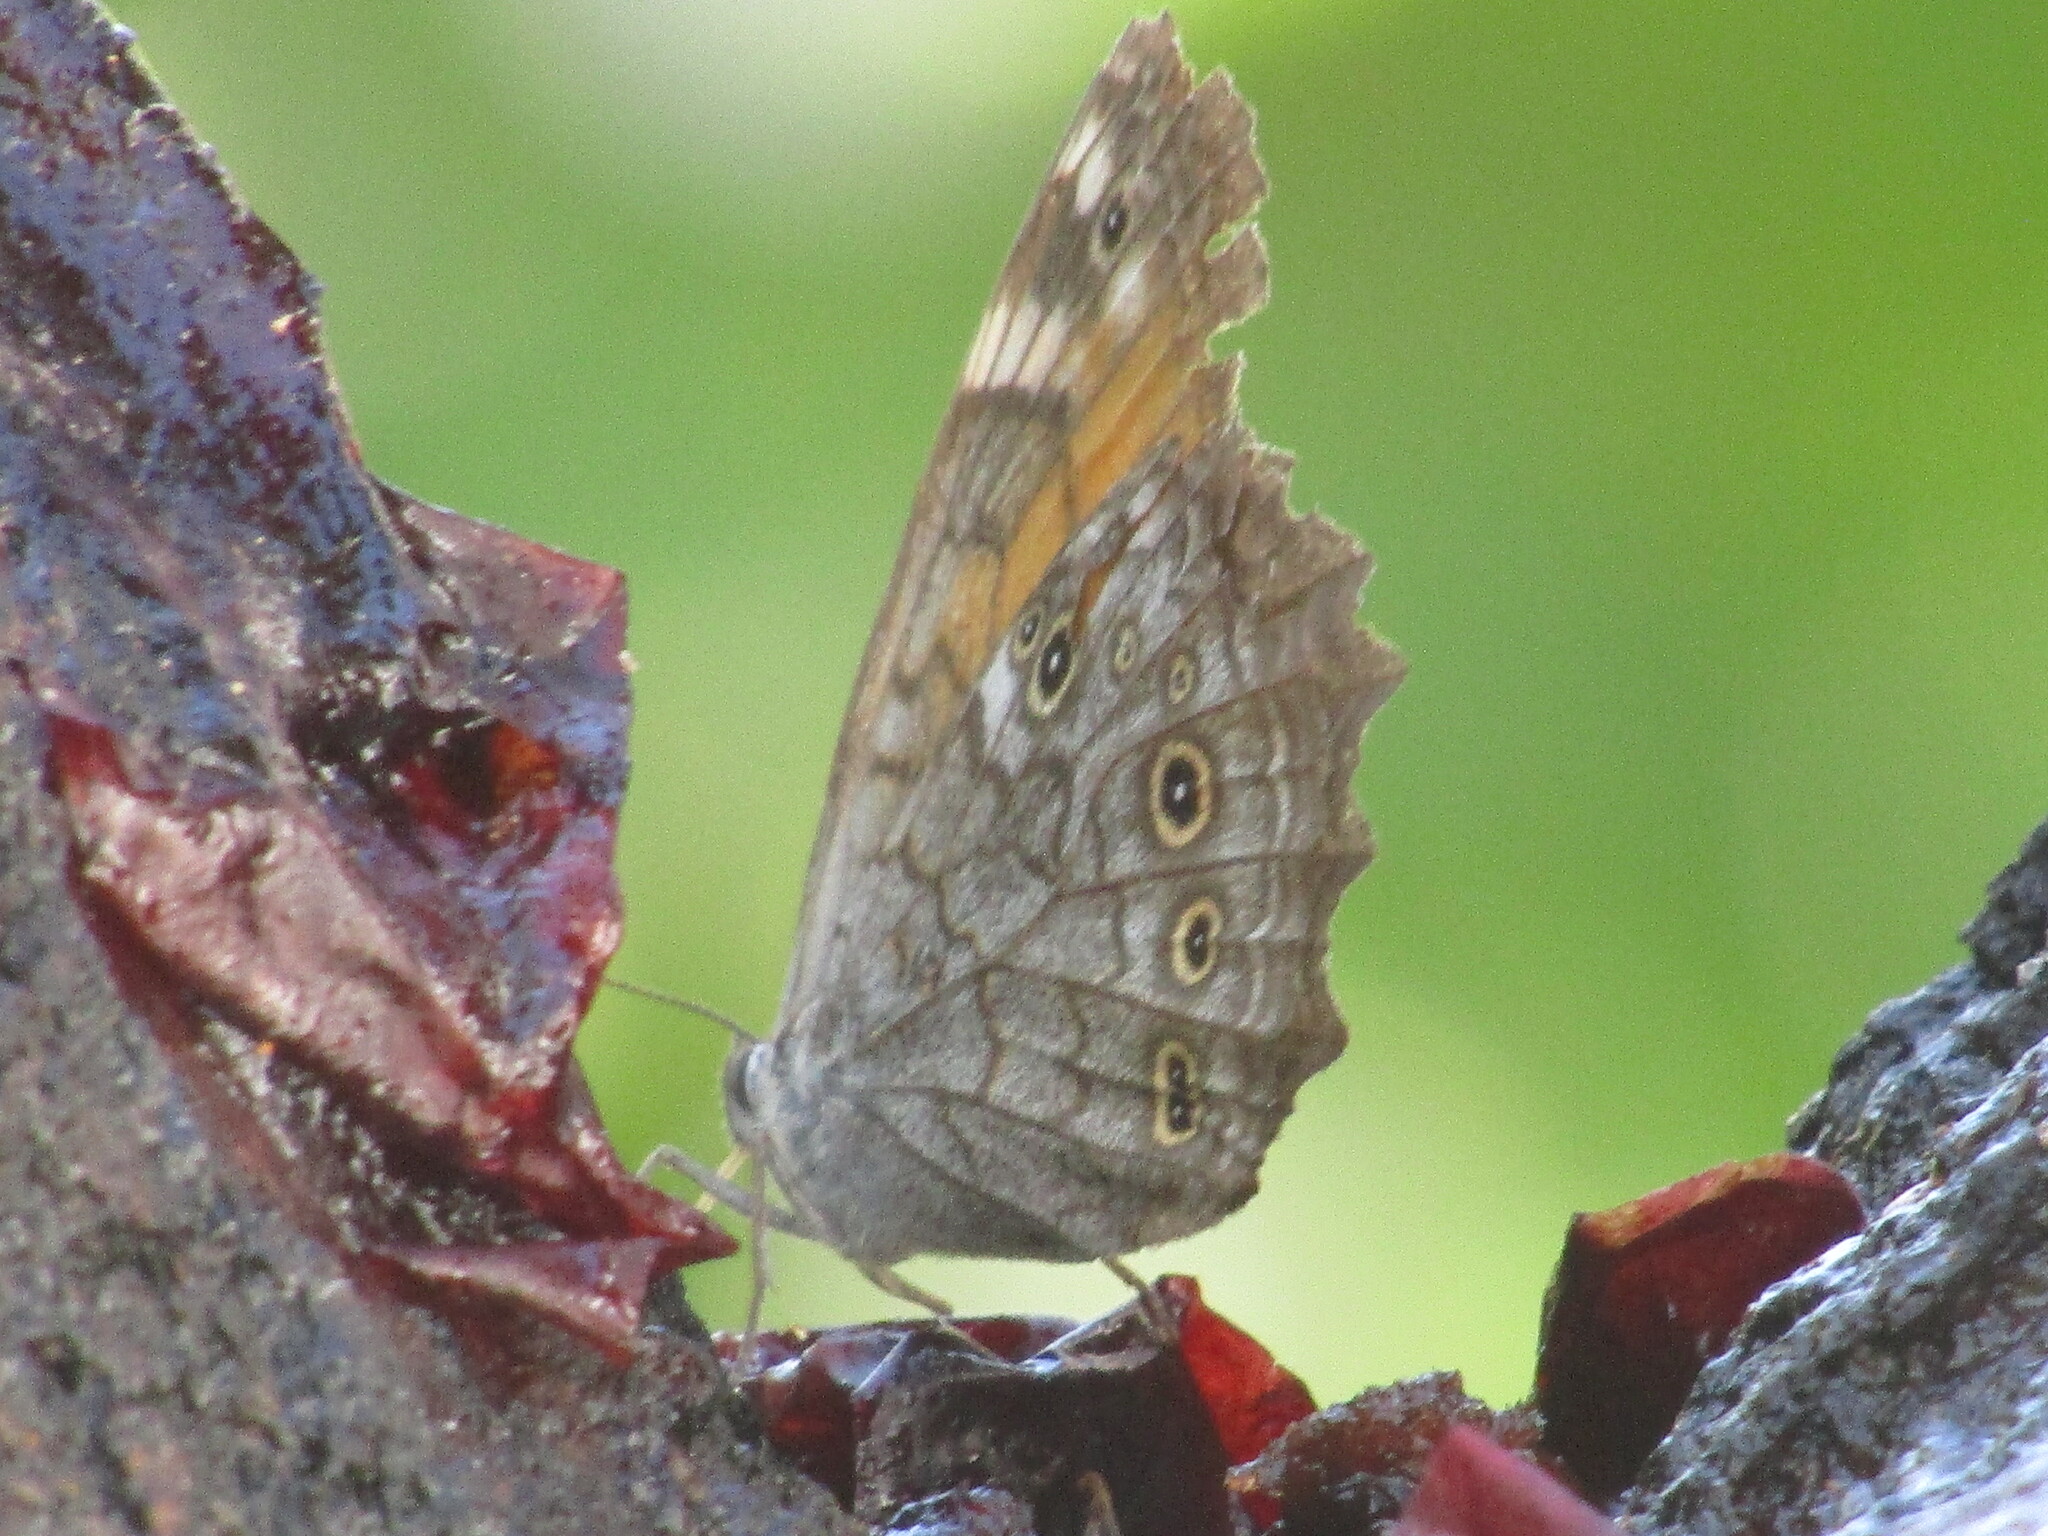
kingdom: Animalia
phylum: Arthropoda
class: Insecta
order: Lepidoptera
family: Nymphalidae
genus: Kirinia
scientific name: Kirinia roxelana
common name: Lattice brown
